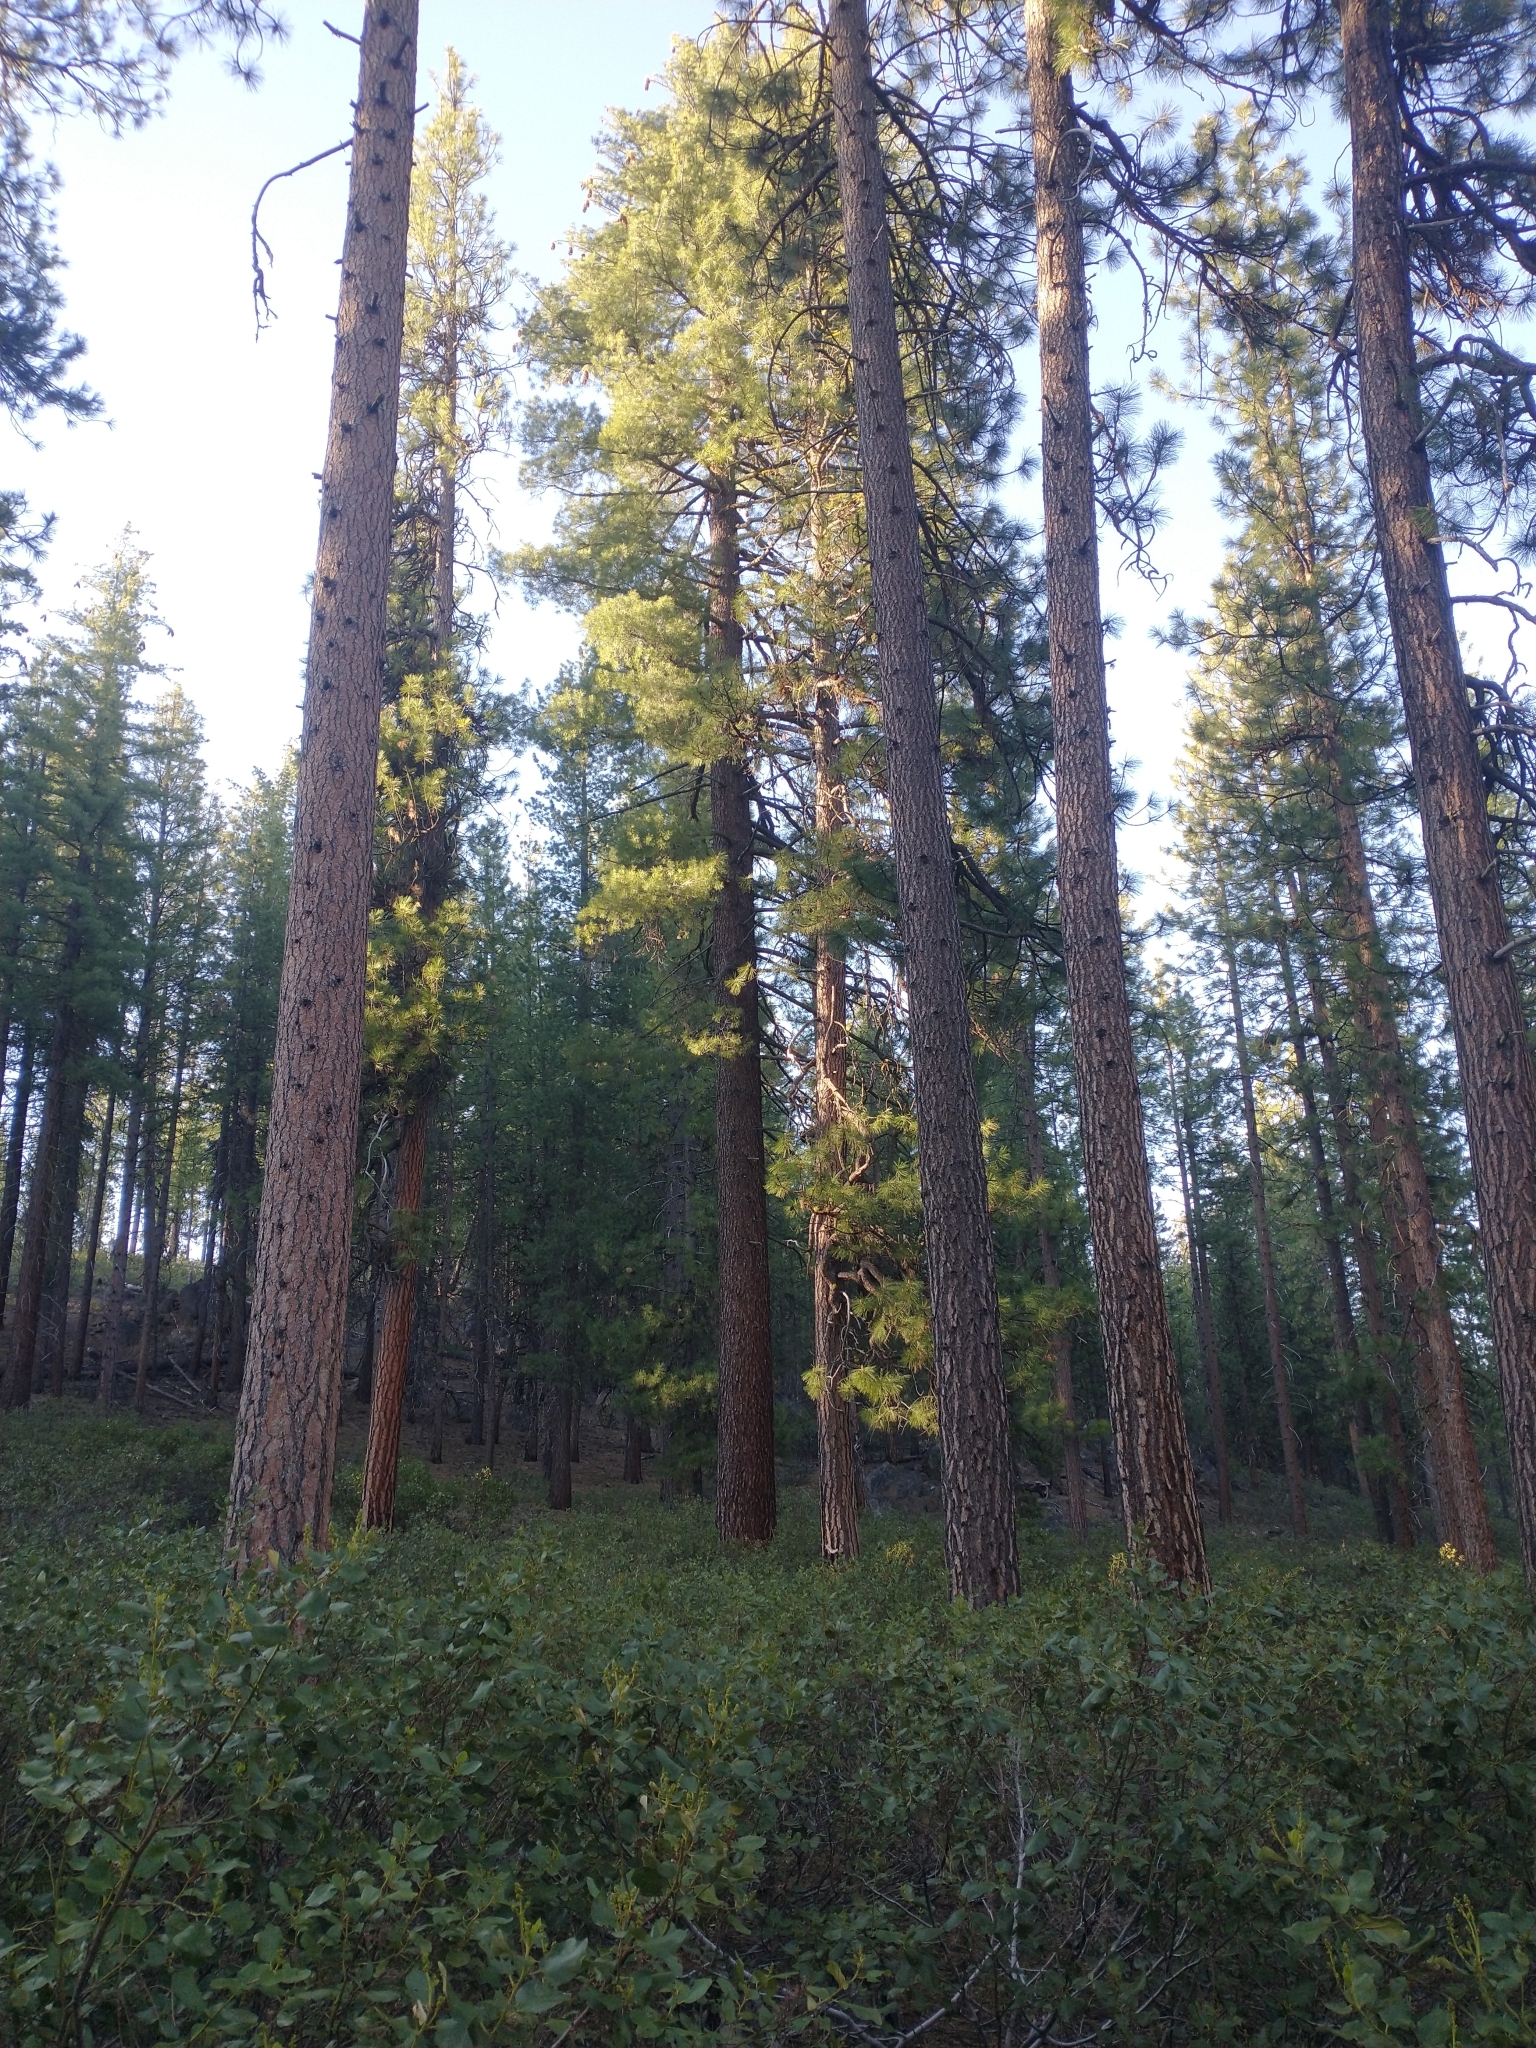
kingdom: Plantae
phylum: Tracheophyta
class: Pinopsida
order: Pinales
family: Pinaceae
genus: Pinus
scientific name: Pinus ponderosa
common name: Western yellow-pine
